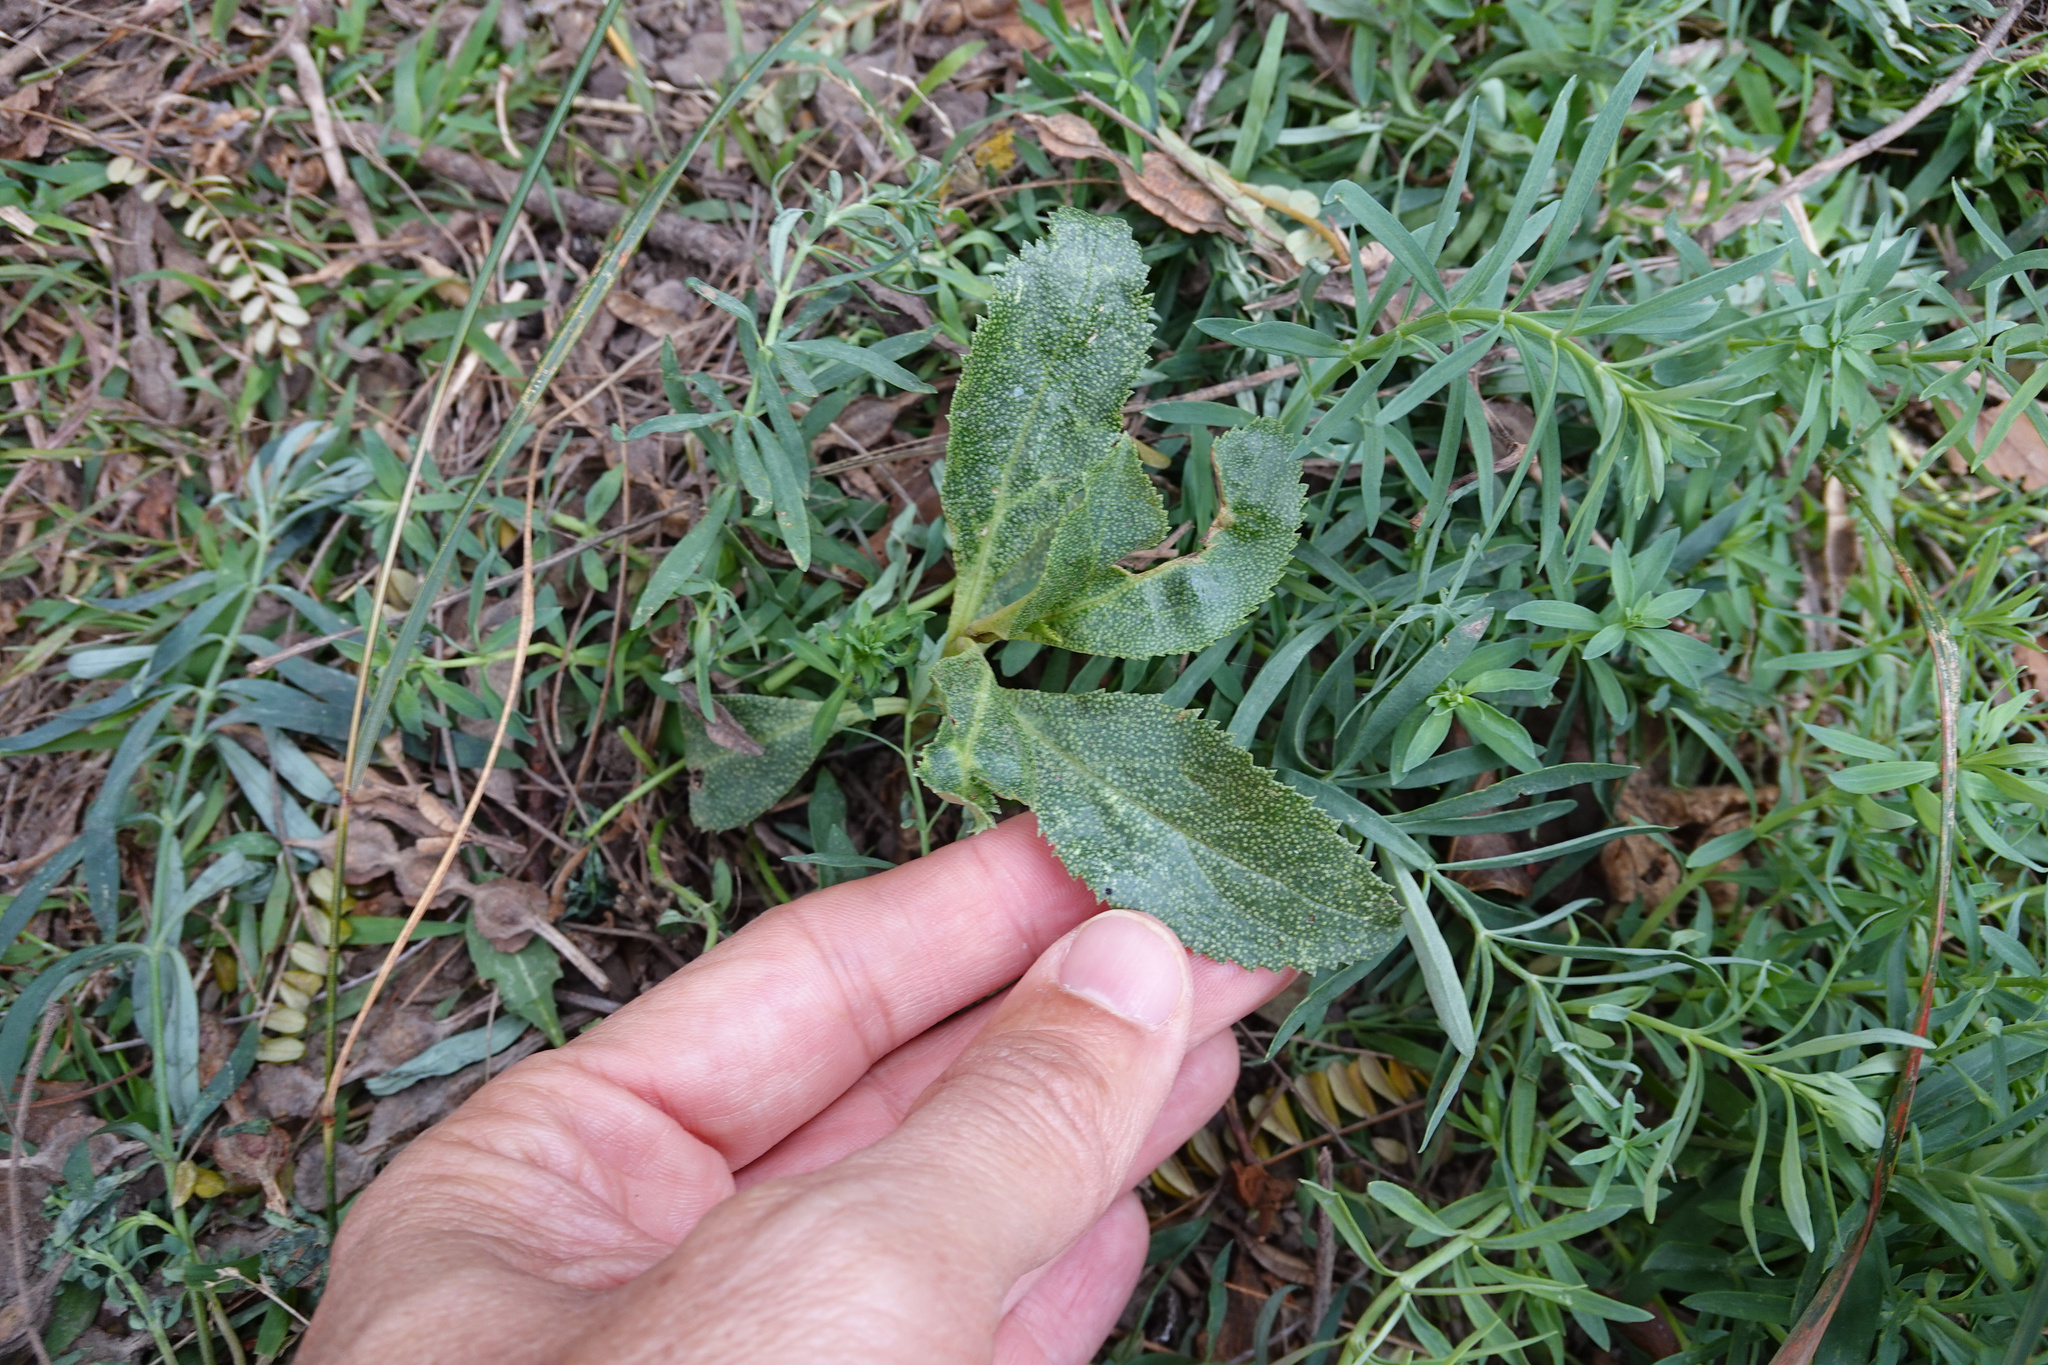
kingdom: Plantae
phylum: Tracheophyta
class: Magnoliopsida
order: Lamiales
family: Scrophulariaceae
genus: Myoporum
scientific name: Myoporum laetum
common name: Ngaio tree
